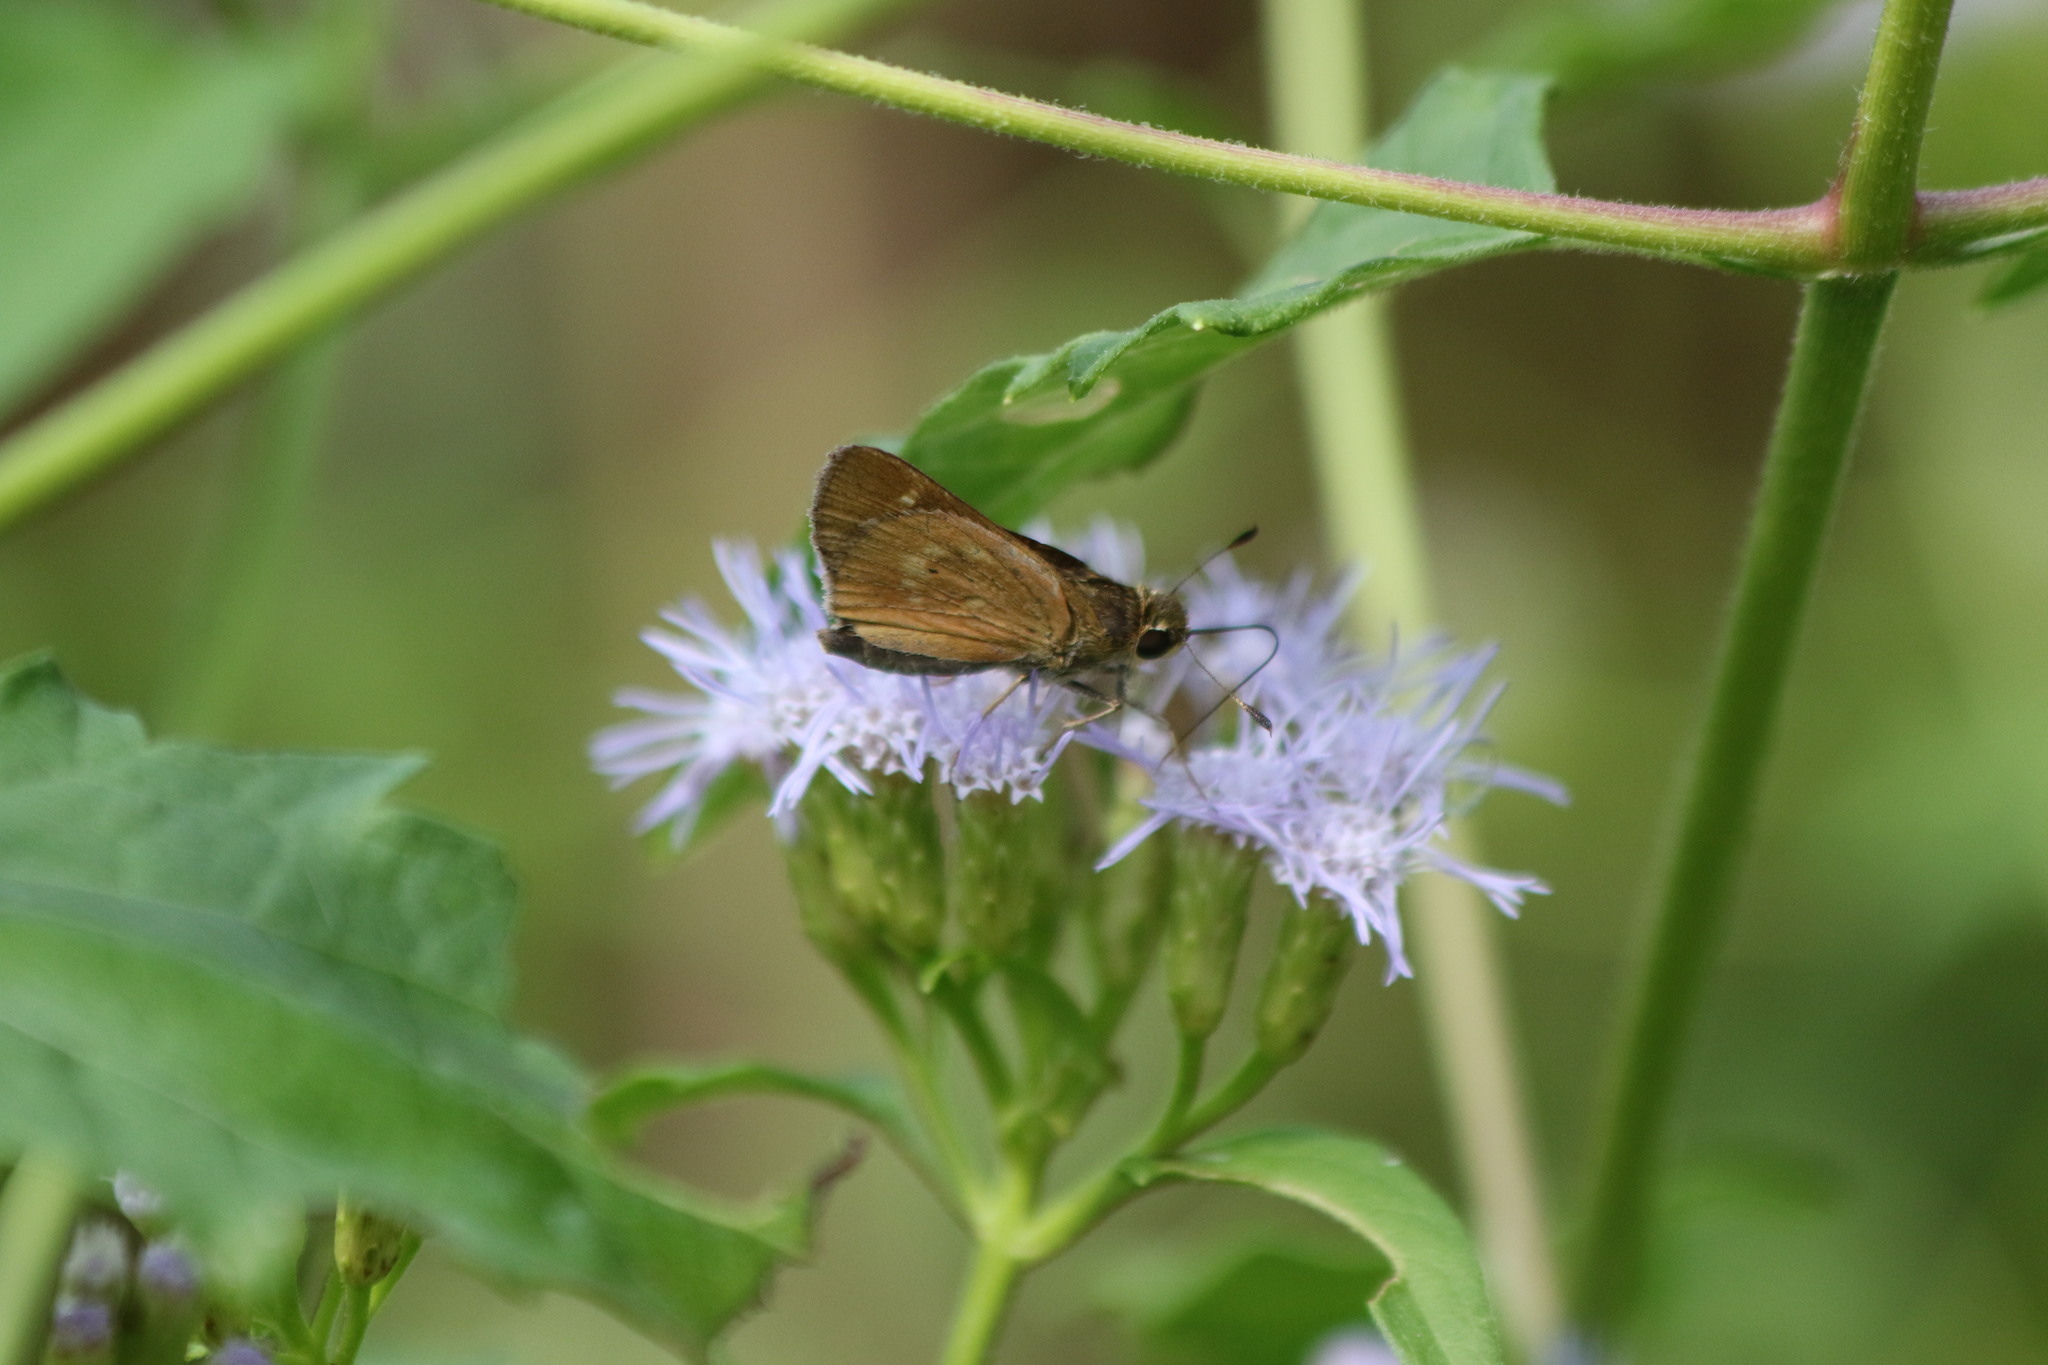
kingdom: Animalia
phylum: Arthropoda
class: Insecta
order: Lepidoptera
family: Hesperiidae
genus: Mellana
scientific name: Mellana eulogius
